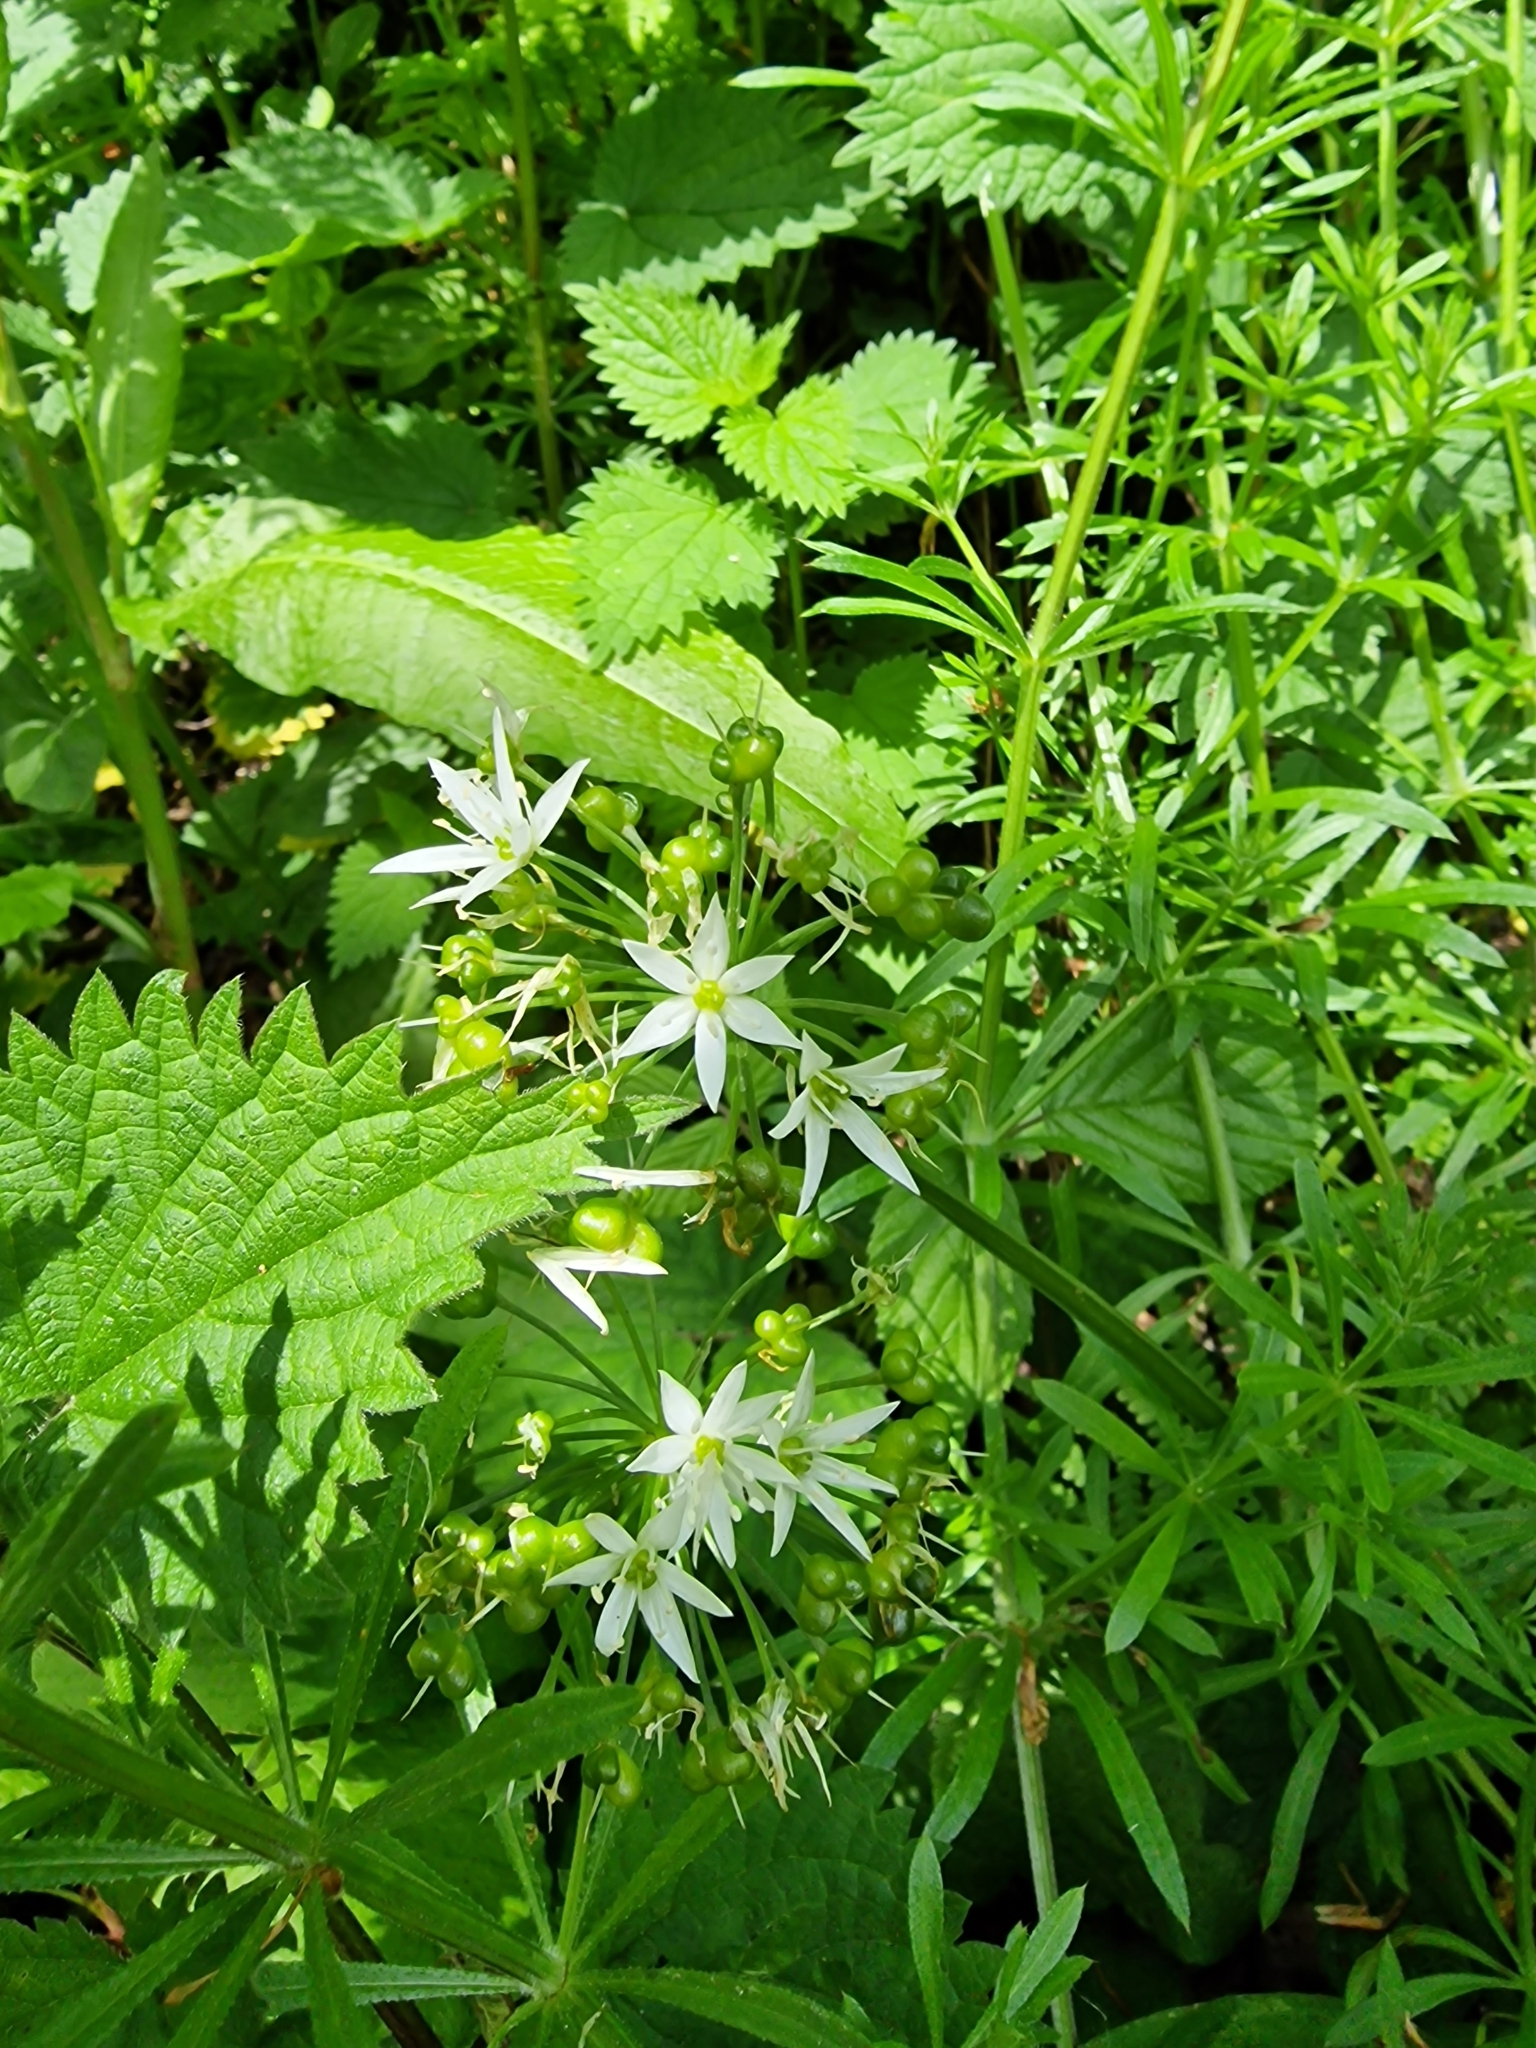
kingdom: Plantae
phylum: Tracheophyta
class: Liliopsida
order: Asparagales
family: Amaryllidaceae
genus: Allium
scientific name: Allium ursinum
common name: Ramsons
